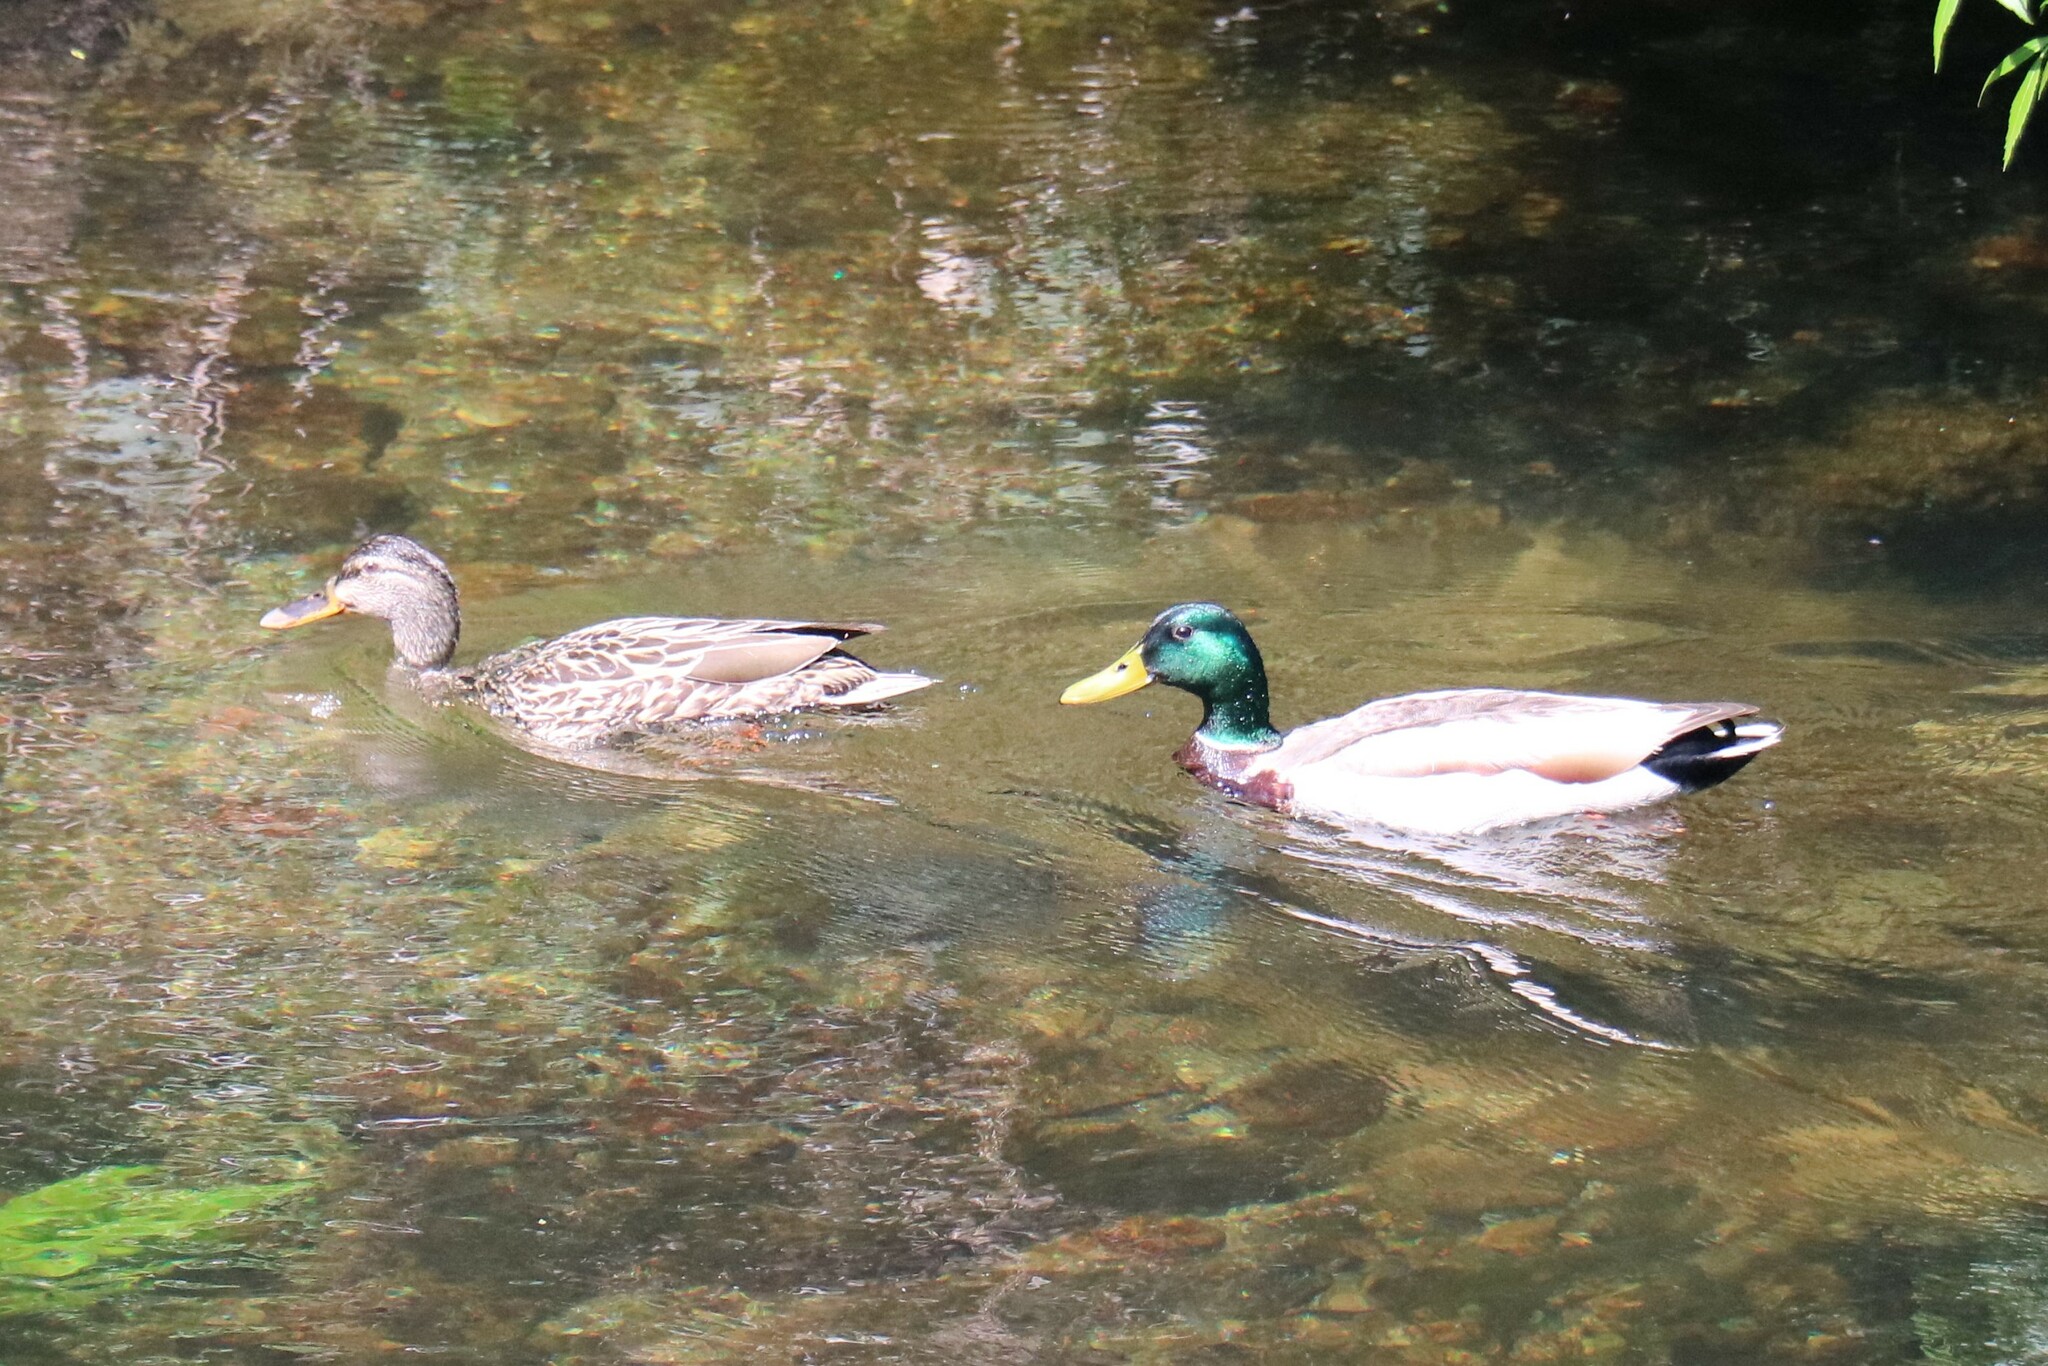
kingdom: Animalia
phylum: Chordata
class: Aves
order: Anseriformes
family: Anatidae
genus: Anas
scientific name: Anas platyrhynchos
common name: Mallard
